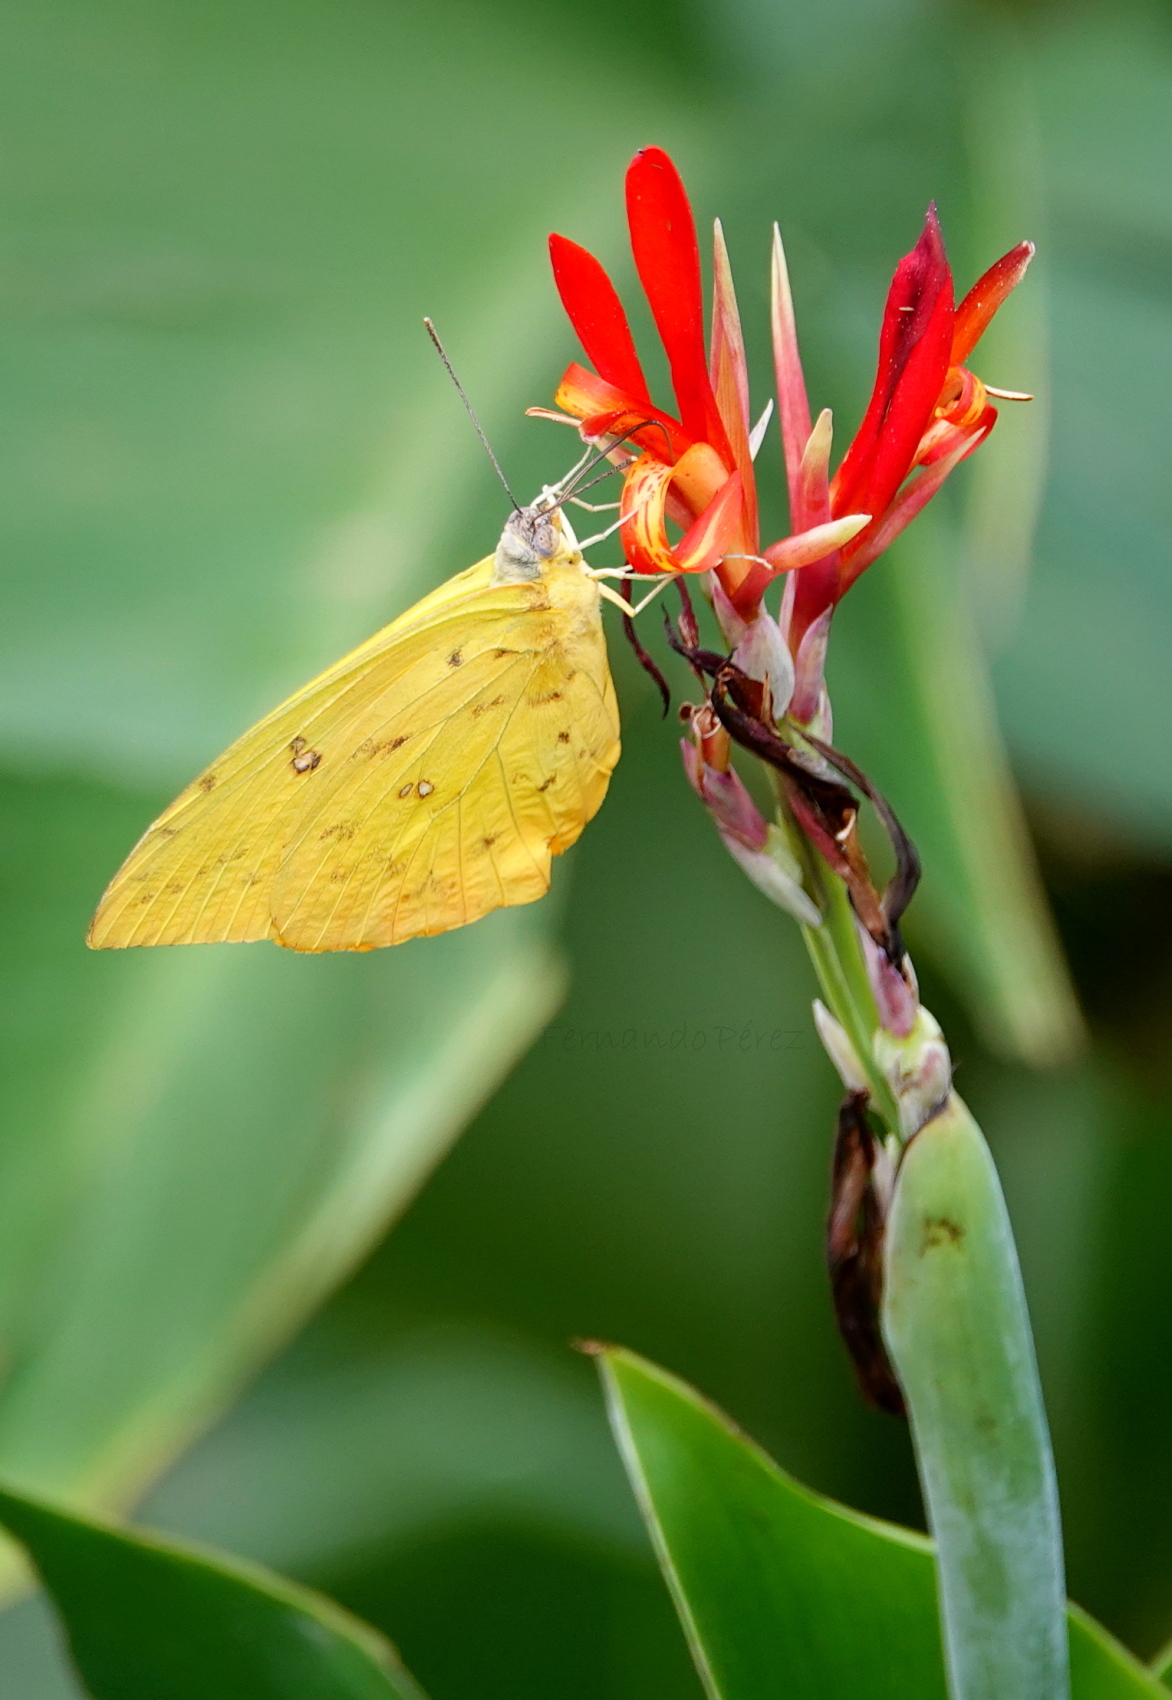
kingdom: Animalia
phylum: Arthropoda
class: Insecta
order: Lepidoptera
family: Pieridae
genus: Phoebis
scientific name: Phoebis philea
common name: Orange-barred giant sulphur
